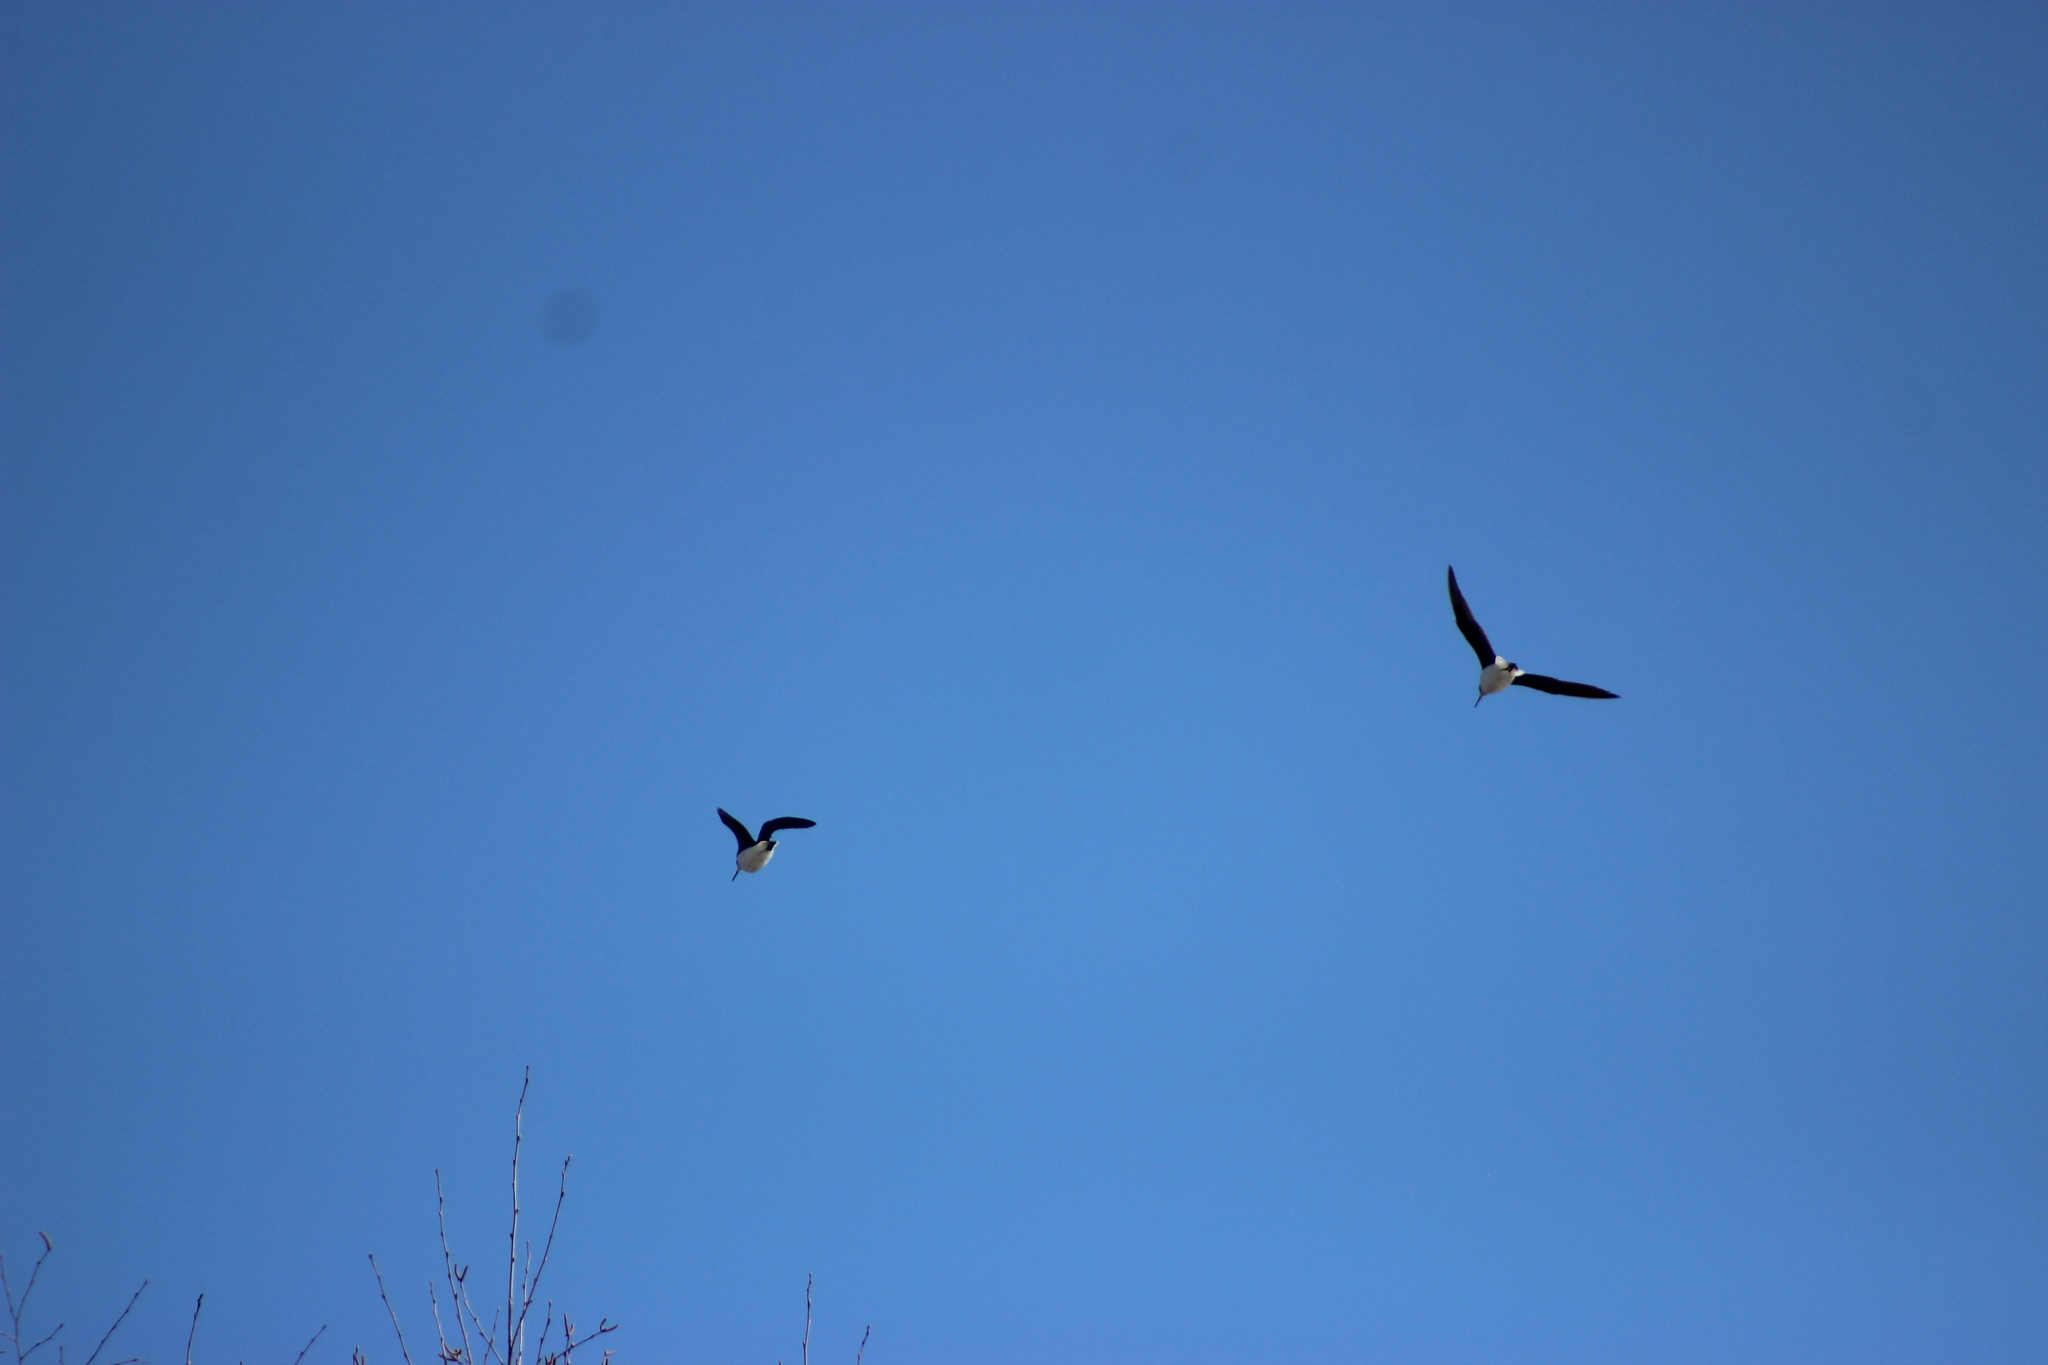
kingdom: Animalia
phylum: Chordata
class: Aves
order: Charadriiformes
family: Scolopacidae
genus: Tringa
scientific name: Tringa ochropus
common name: Green sandpiper
